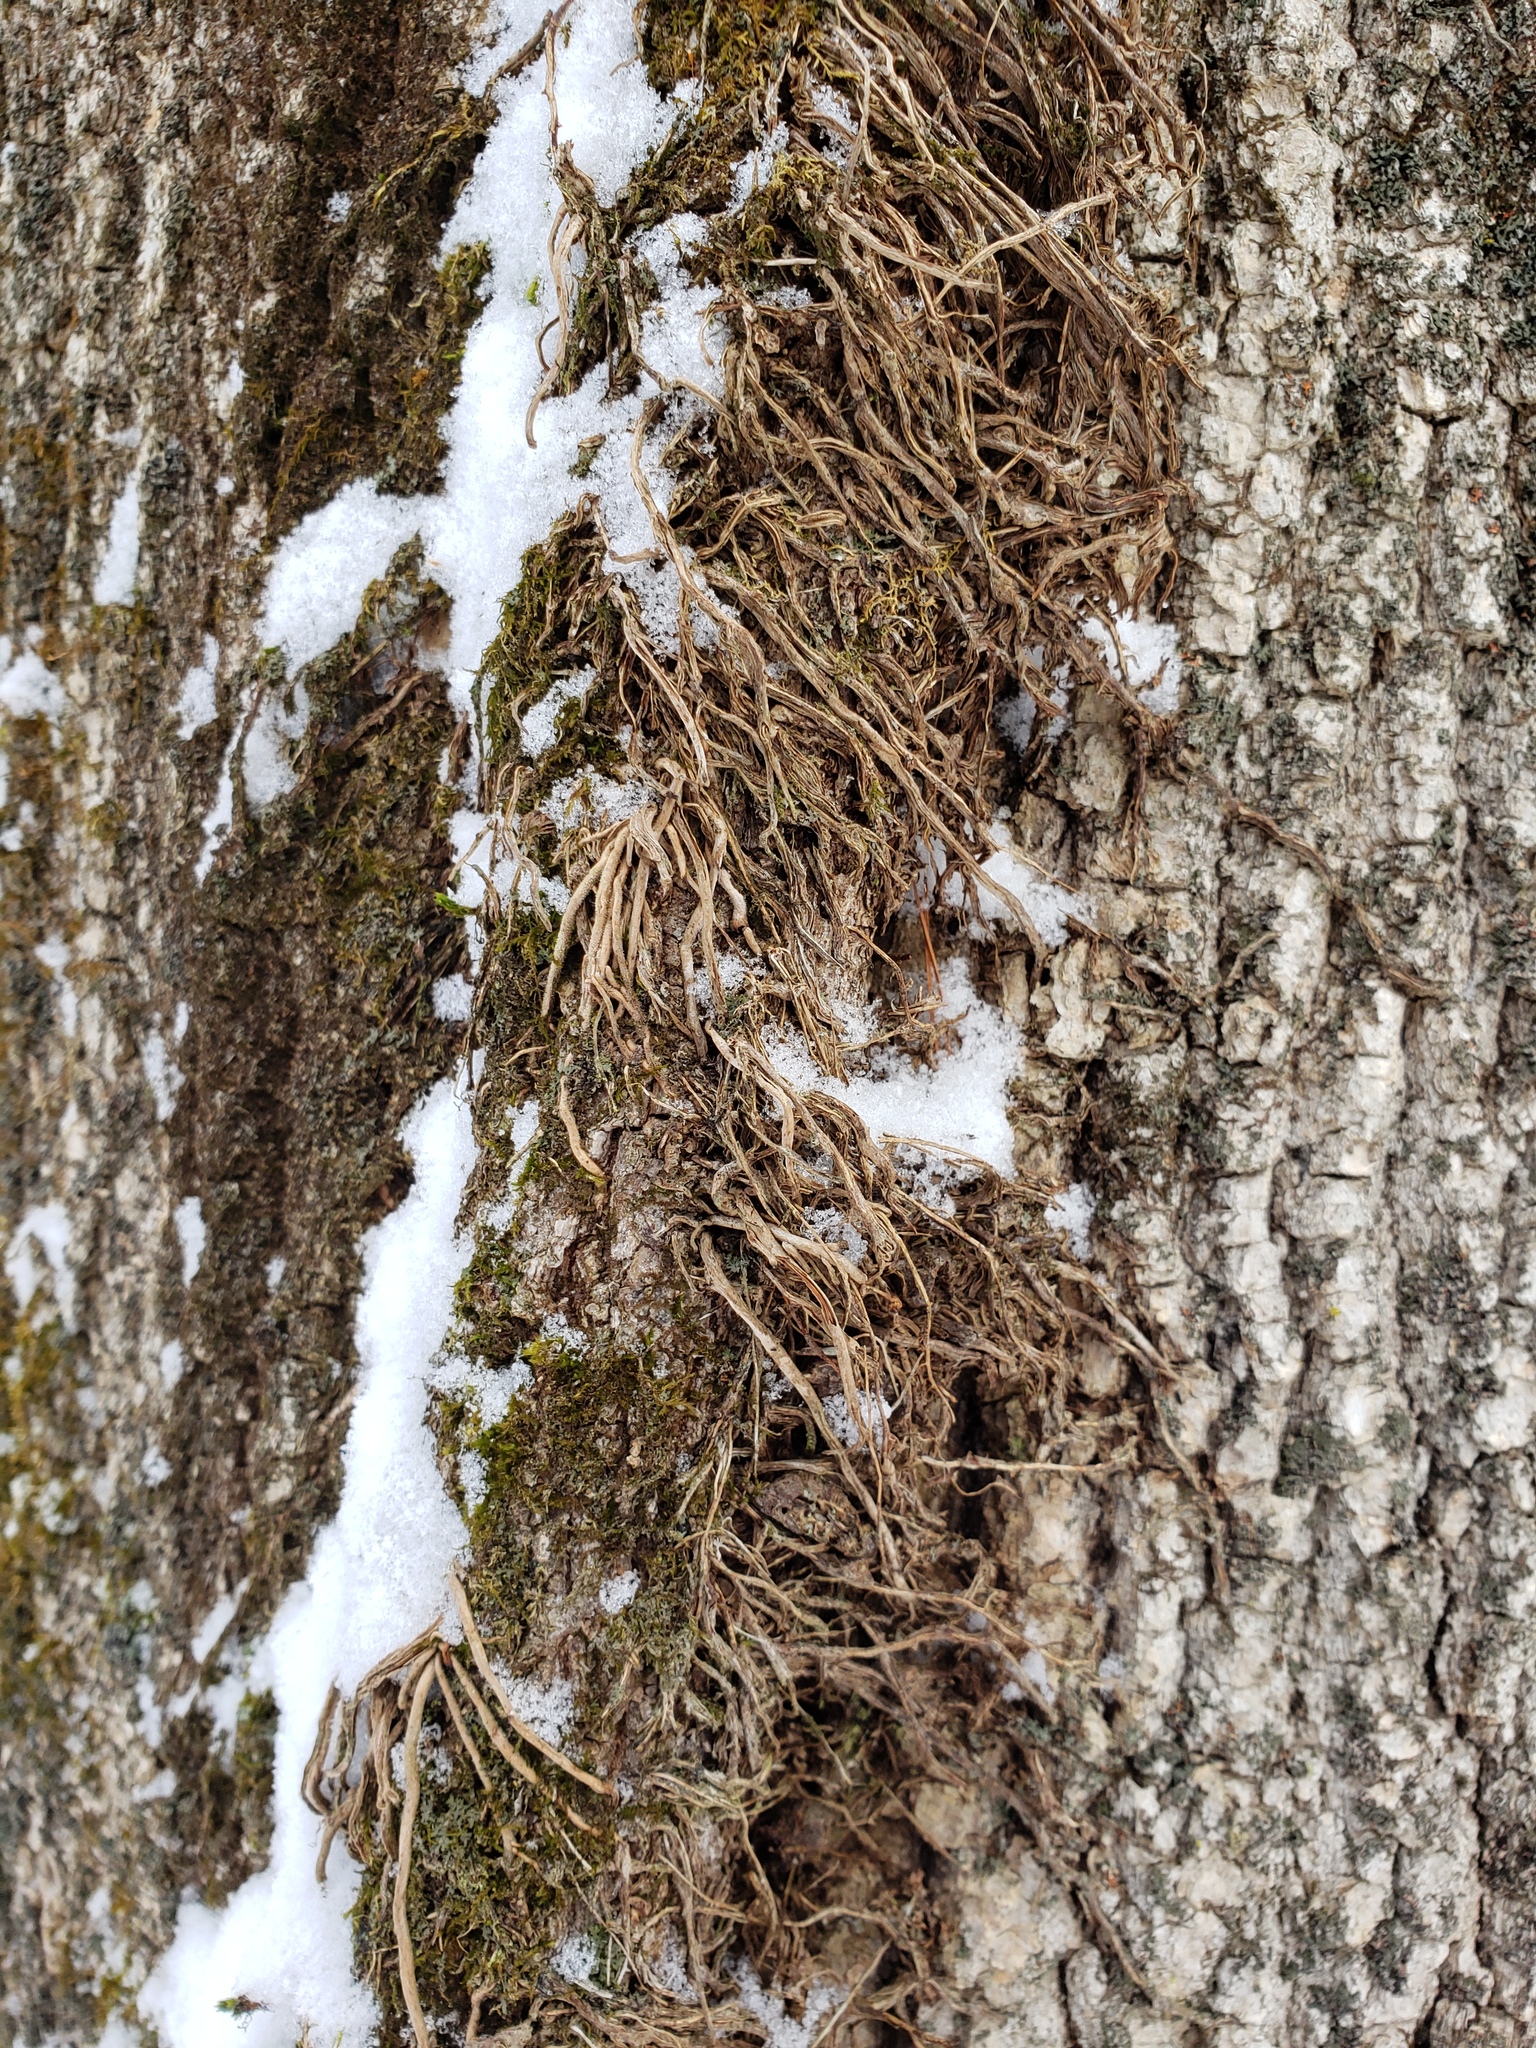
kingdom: Plantae
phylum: Tracheophyta
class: Magnoliopsida
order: Sapindales
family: Anacardiaceae
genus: Toxicodendron
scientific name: Toxicodendron radicans
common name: Poison ivy
